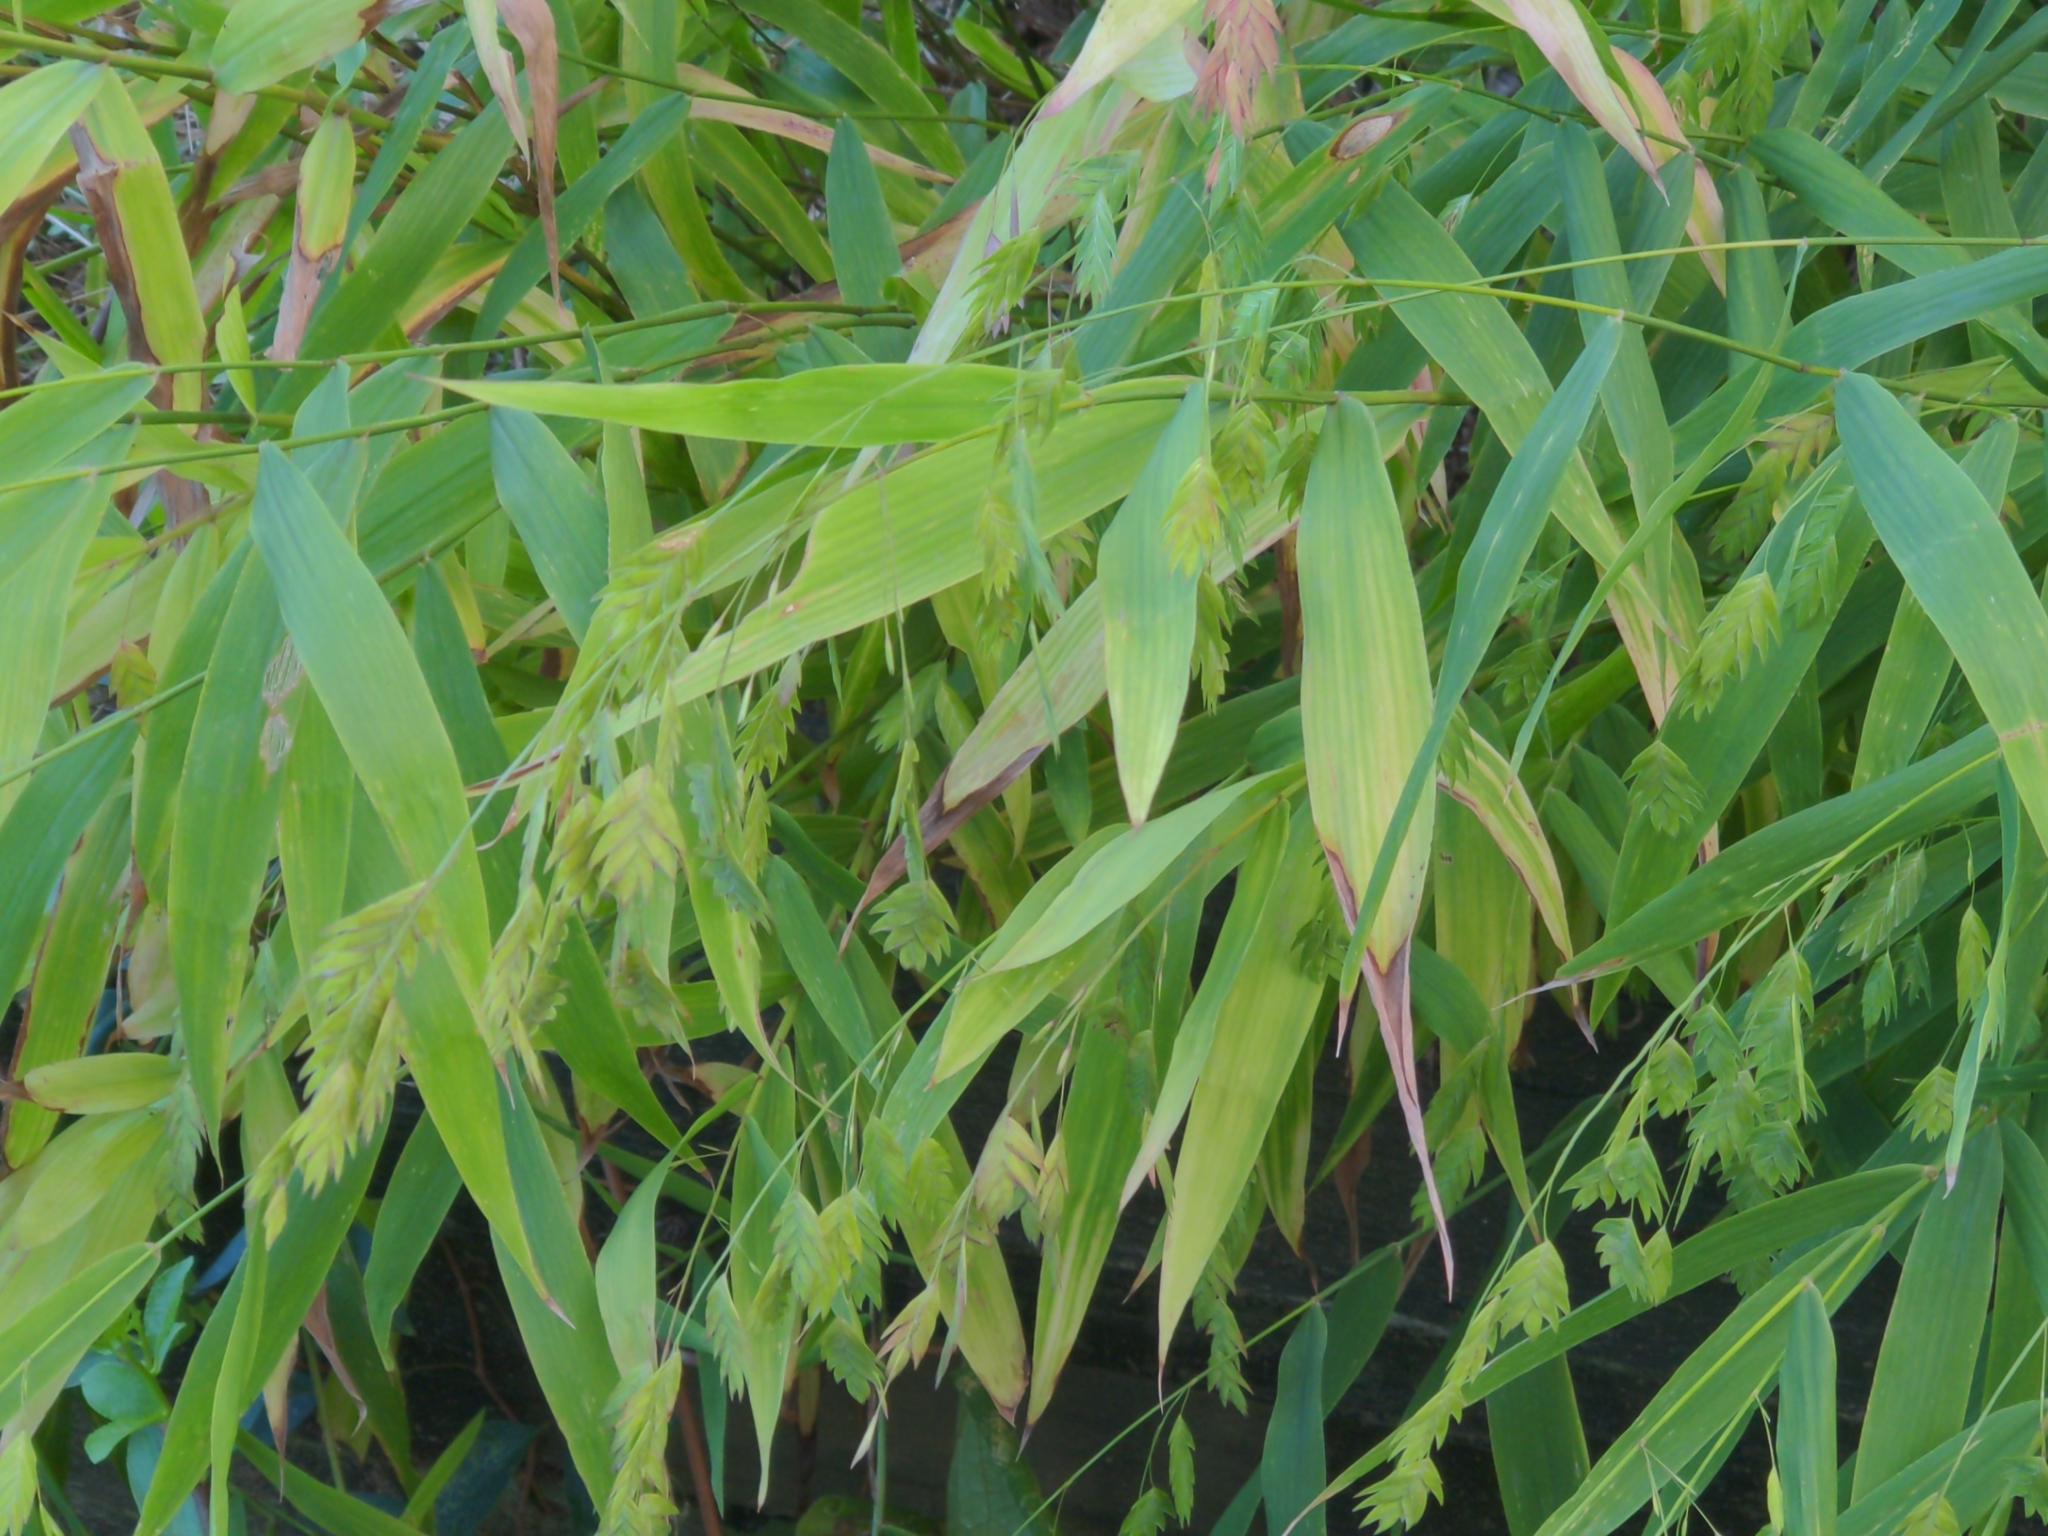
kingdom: Plantae
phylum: Tracheophyta
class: Liliopsida
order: Poales
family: Poaceae
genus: Chasmanthium
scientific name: Chasmanthium latifolium
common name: Broad-leaved chasmanthium
